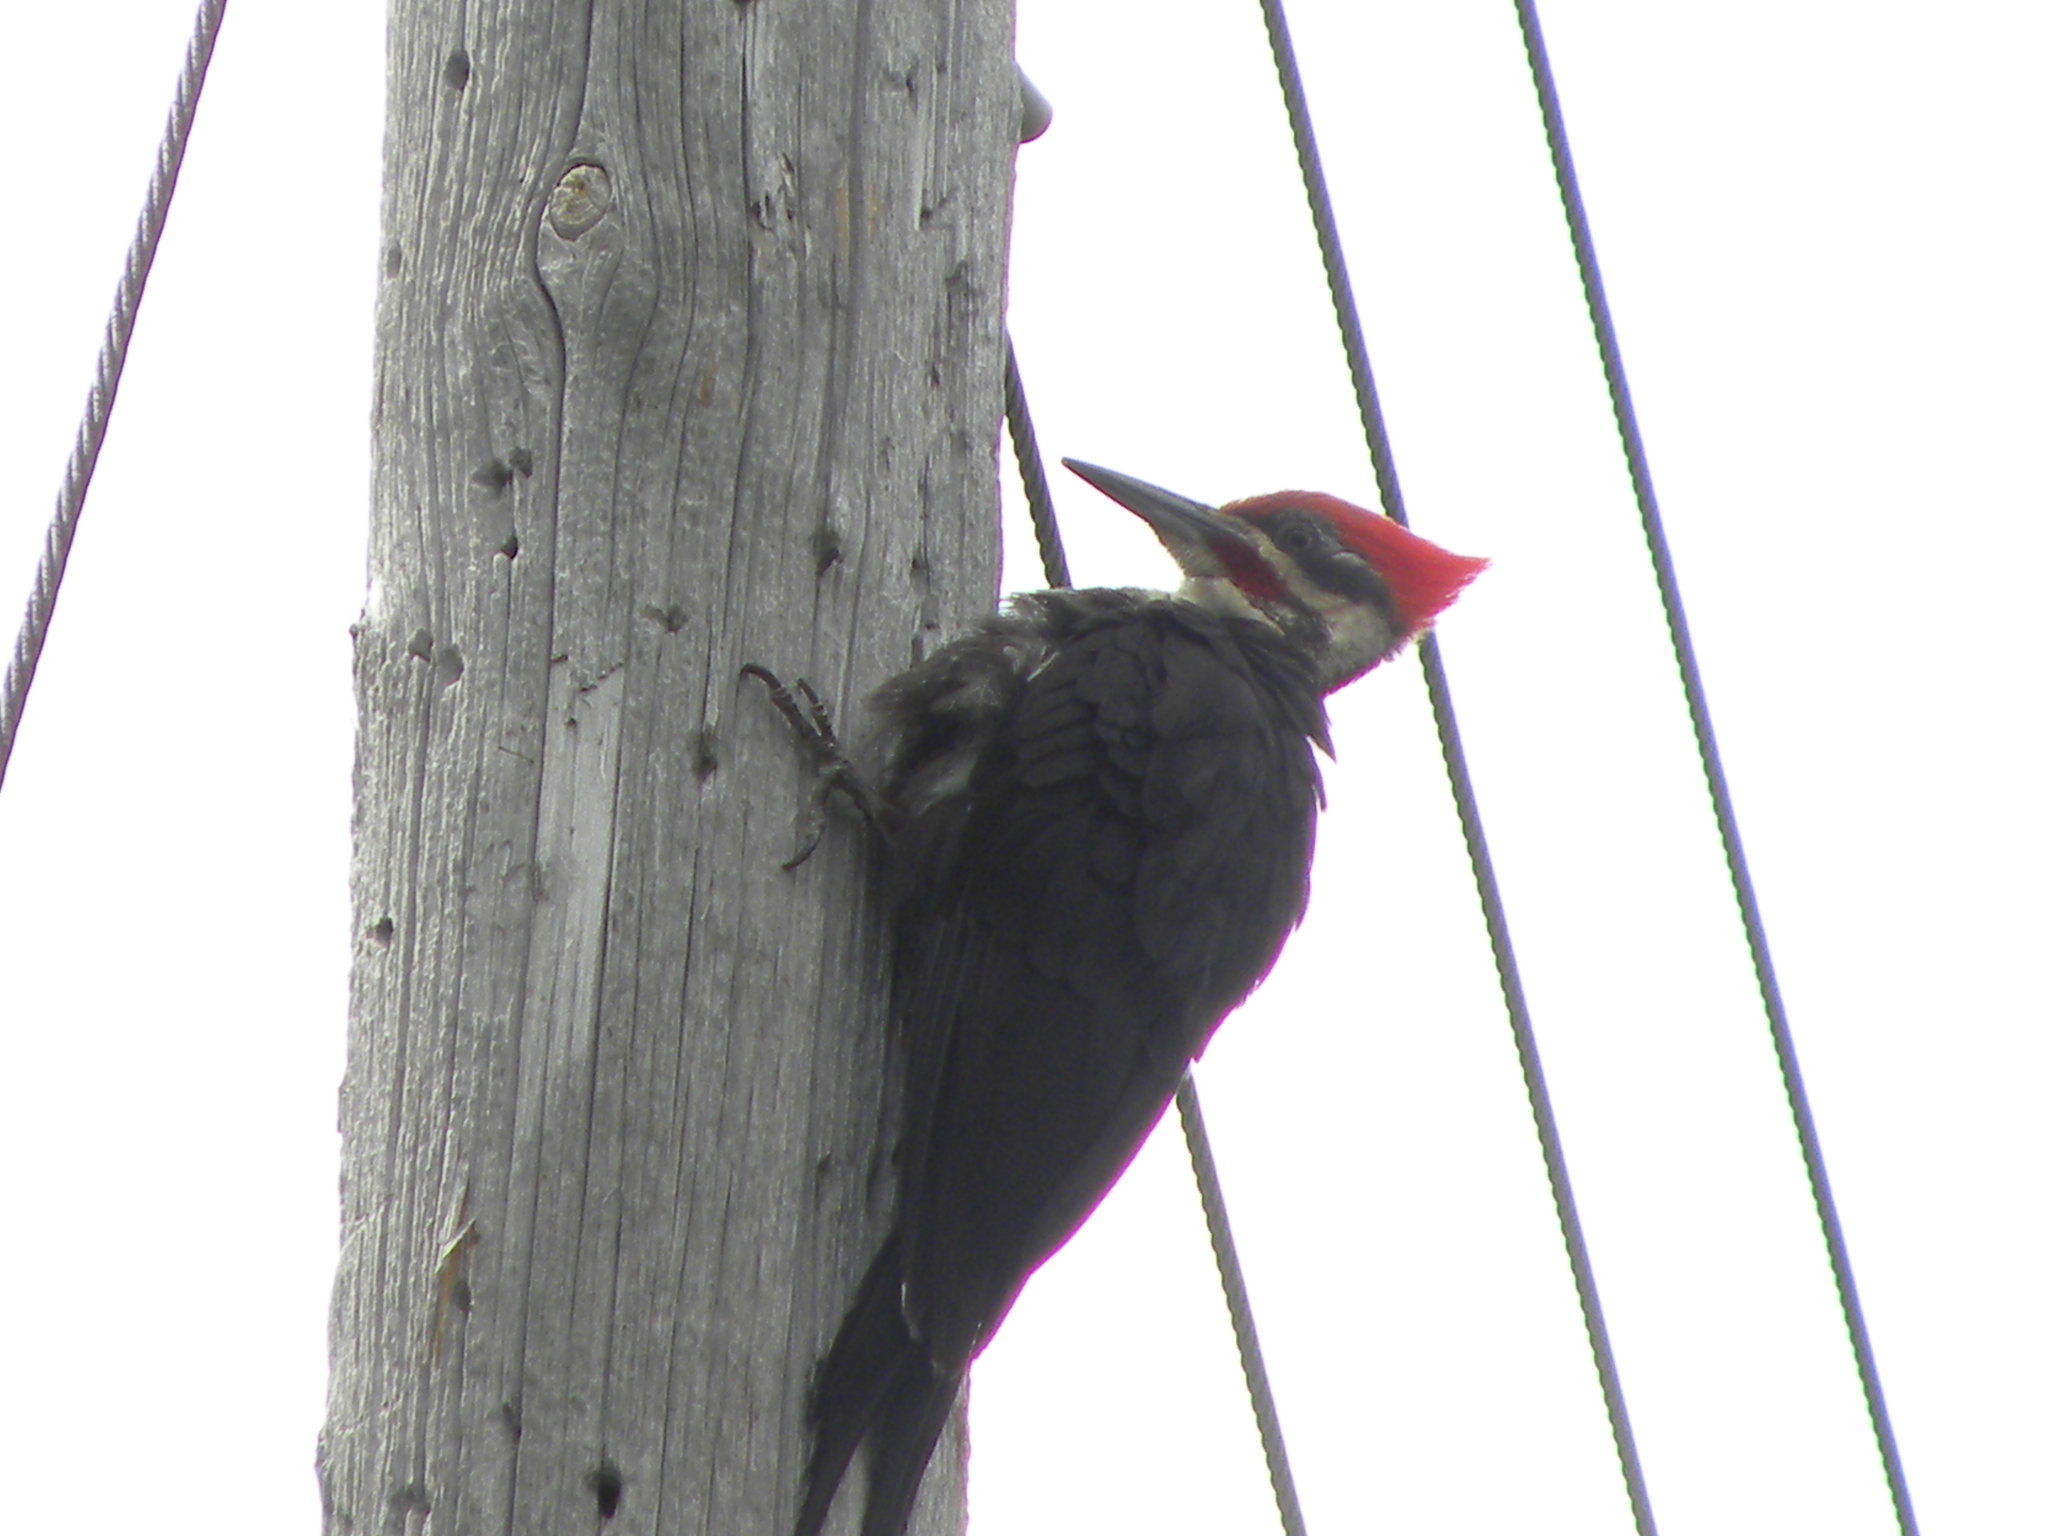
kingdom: Animalia
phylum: Chordata
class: Aves
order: Piciformes
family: Picidae
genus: Dryocopus
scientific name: Dryocopus pileatus
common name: Pileated woodpecker
